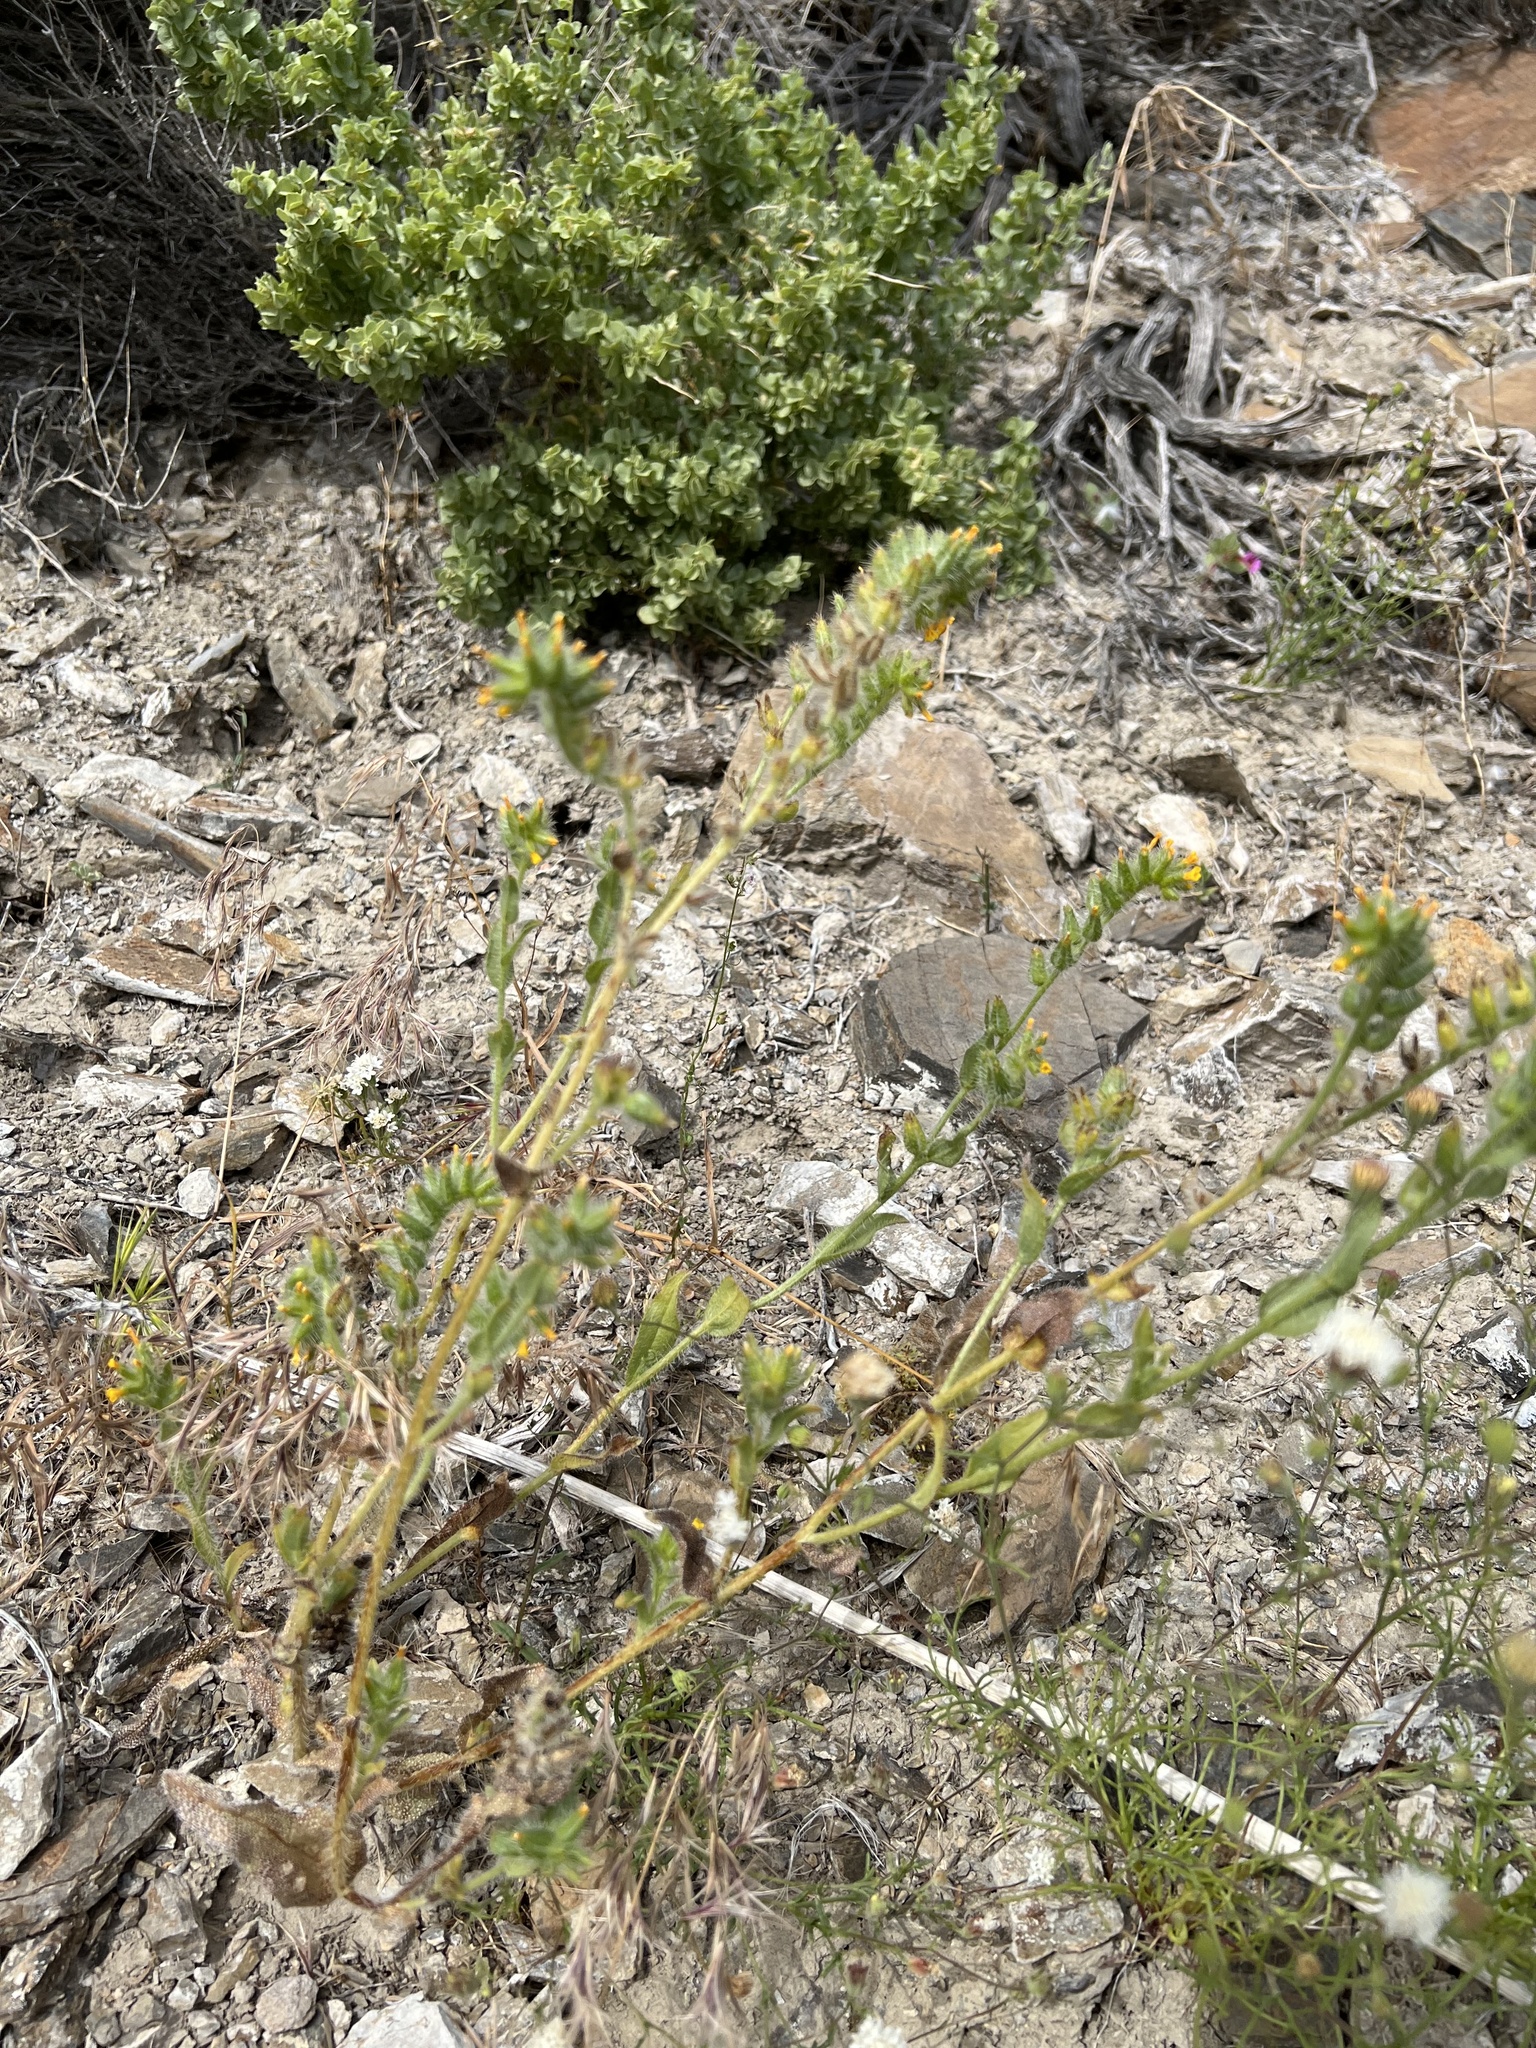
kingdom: Plantae
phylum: Tracheophyta
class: Magnoliopsida
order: Boraginales
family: Boraginaceae
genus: Amsinckia
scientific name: Amsinckia tessellata
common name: Tessellate fiddleneck
